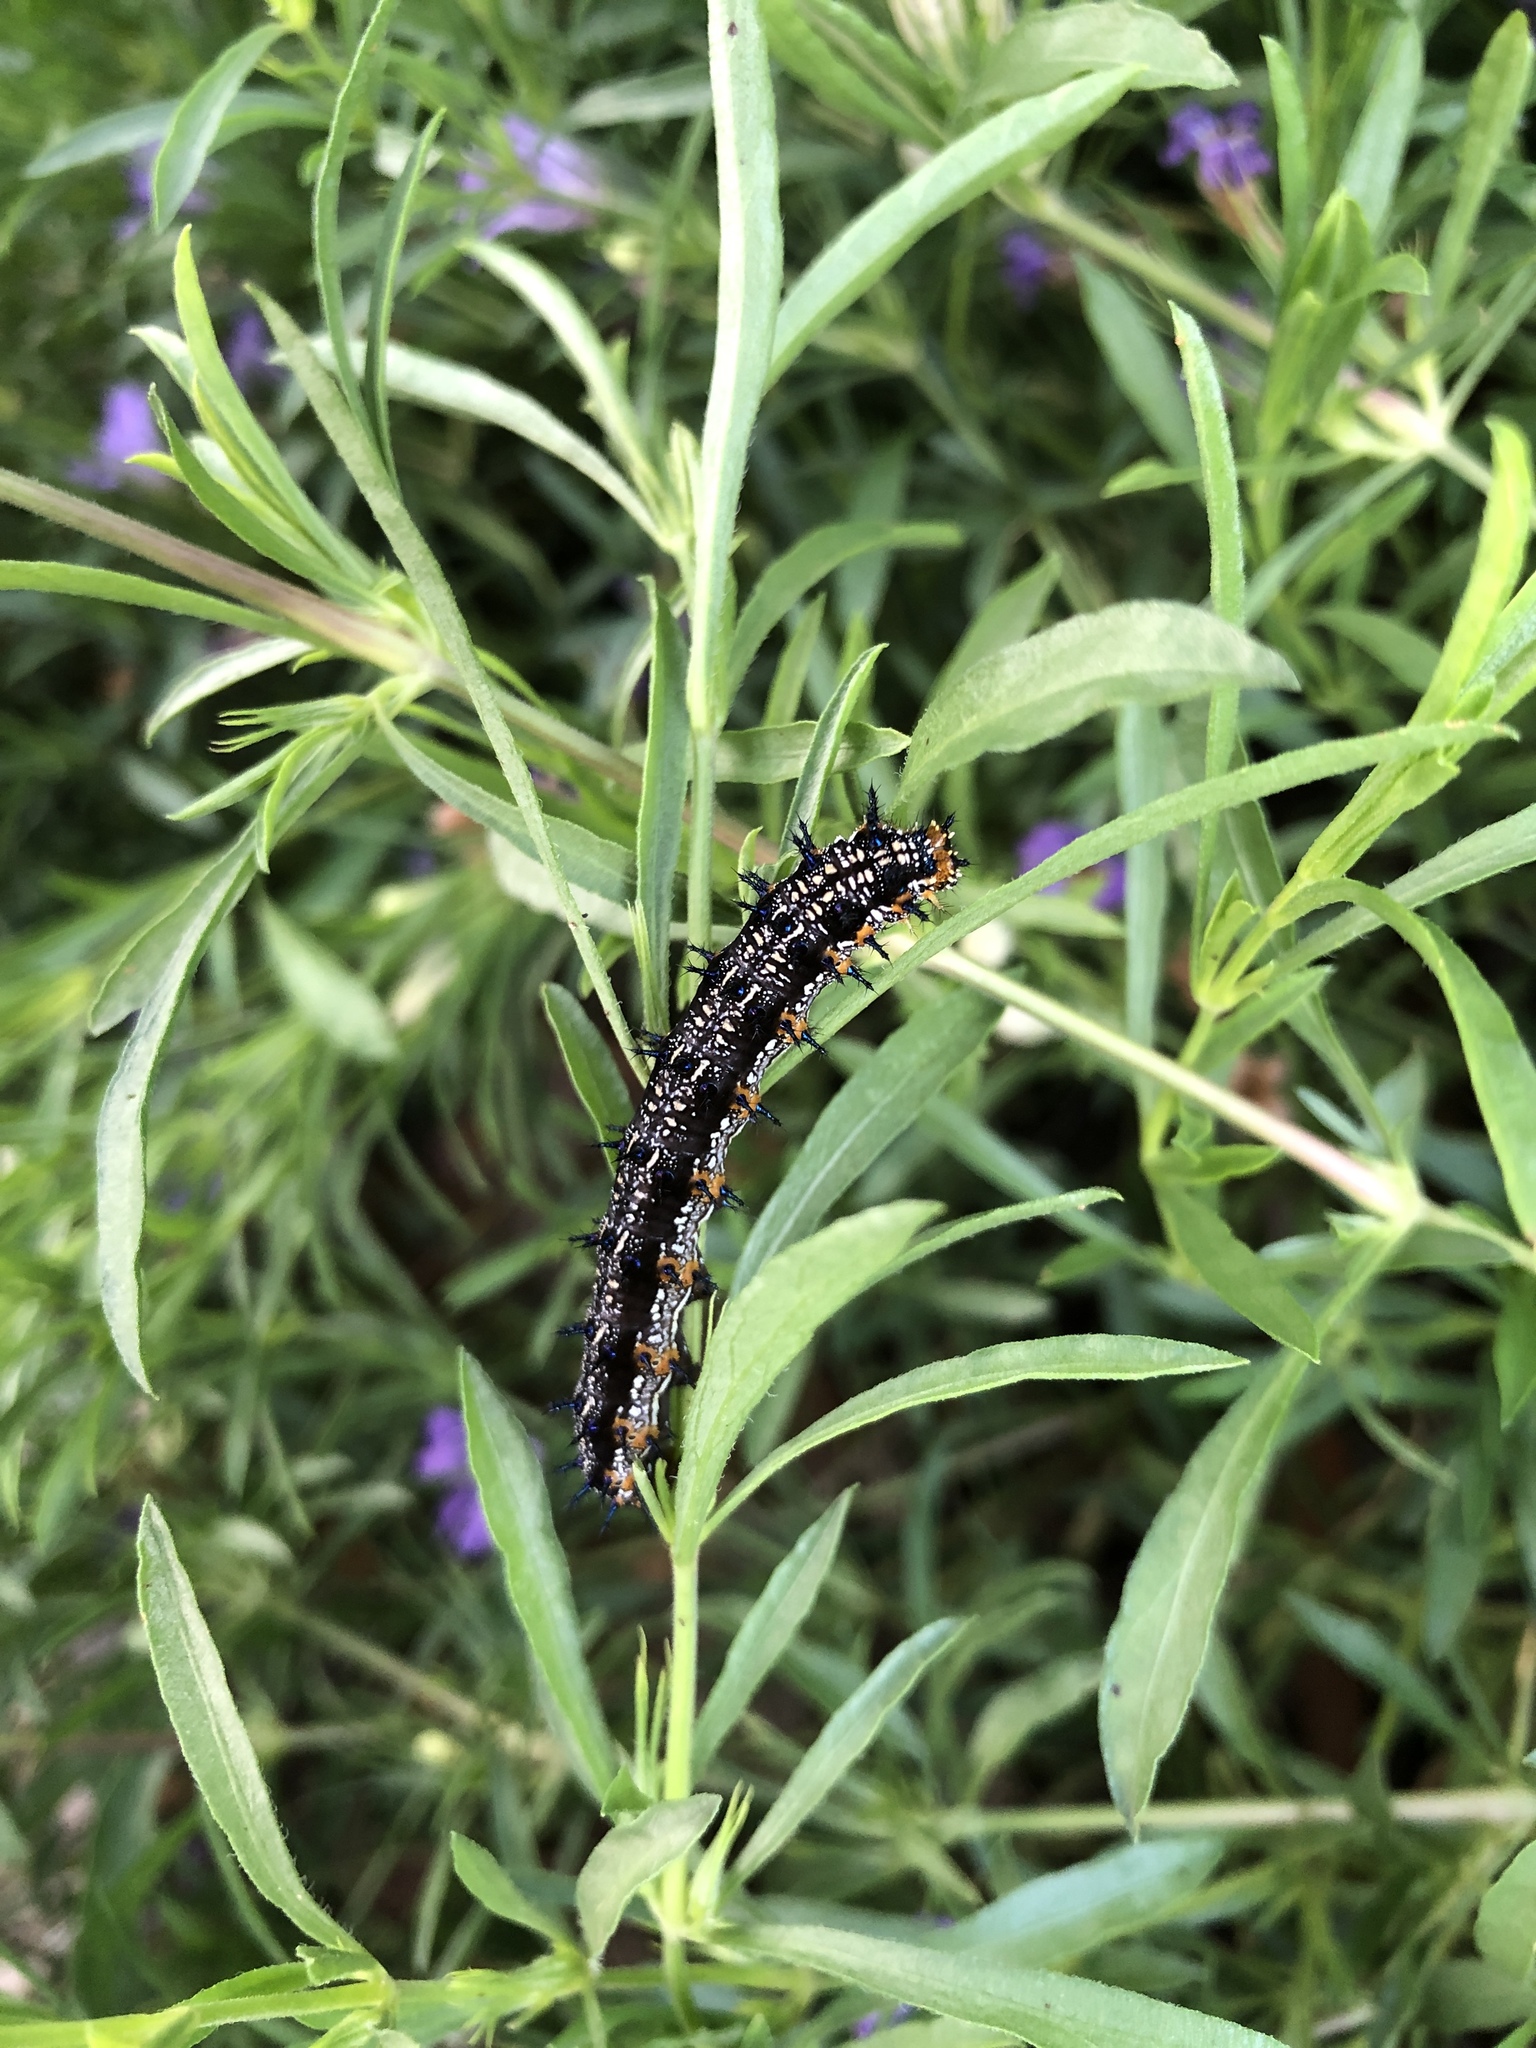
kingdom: Animalia
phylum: Arthropoda
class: Insecta
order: Lepidoptera
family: Nymphalidae
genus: Junonia
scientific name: Junonia coenia
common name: Common buckeye
